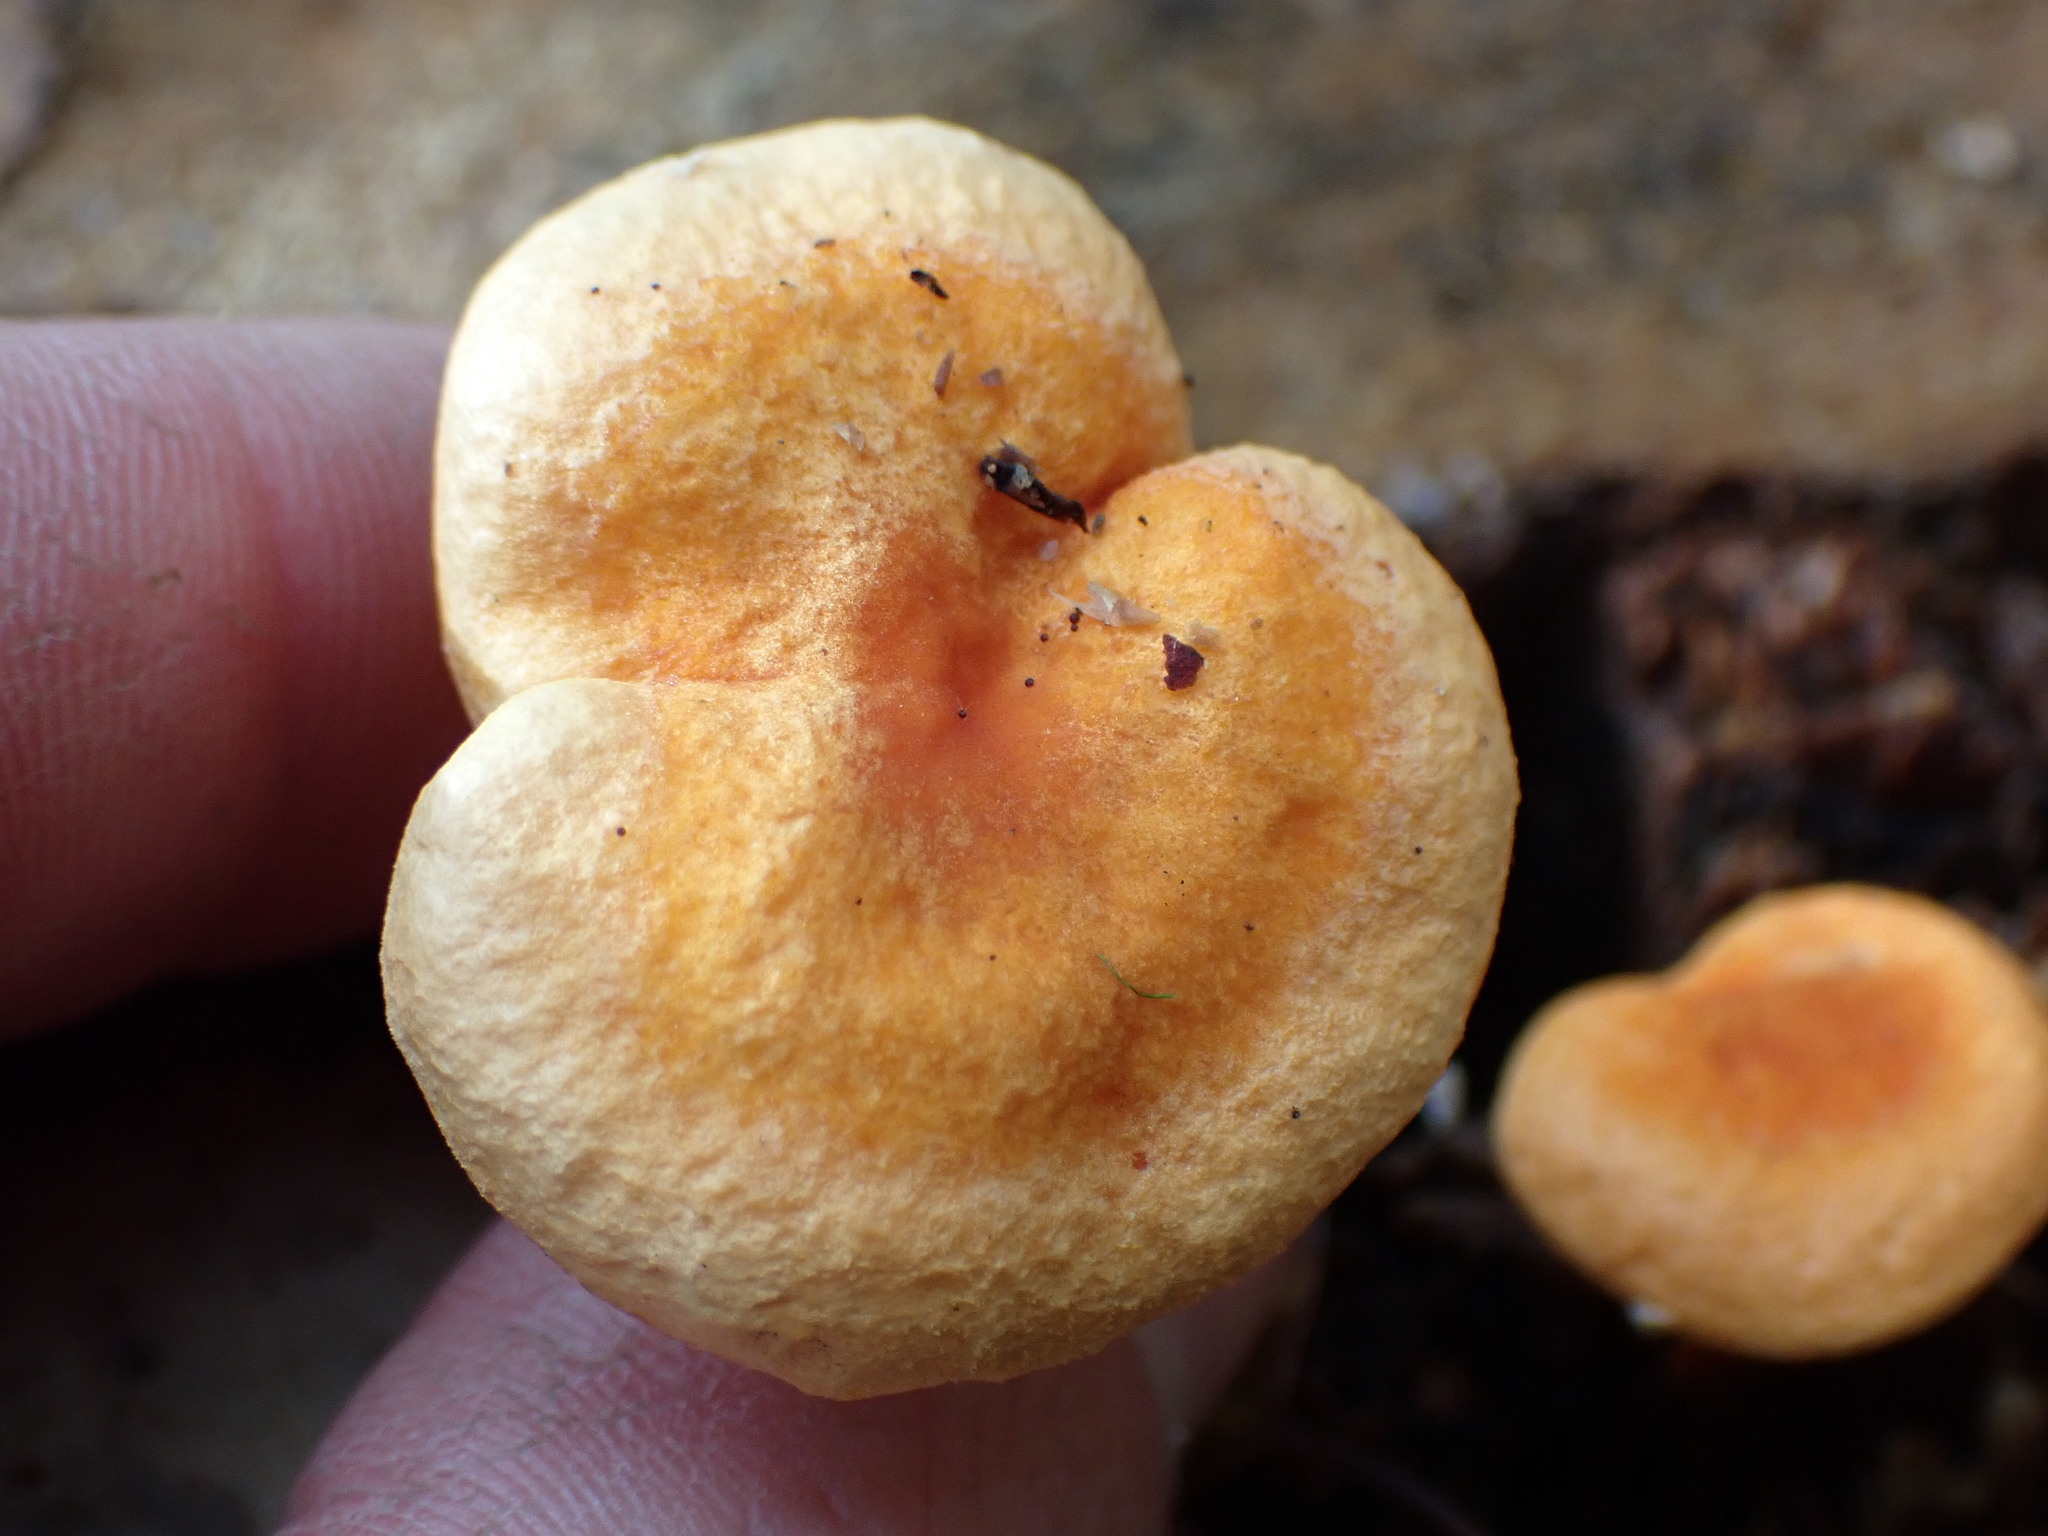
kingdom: Fungi
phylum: Basidiomycota
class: Agaricomycetes
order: Boletales
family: Hygrophoropsidaceae
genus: Hygrophoropsis
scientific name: Hygrophoropsis aurantiaca
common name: False chanterelle
